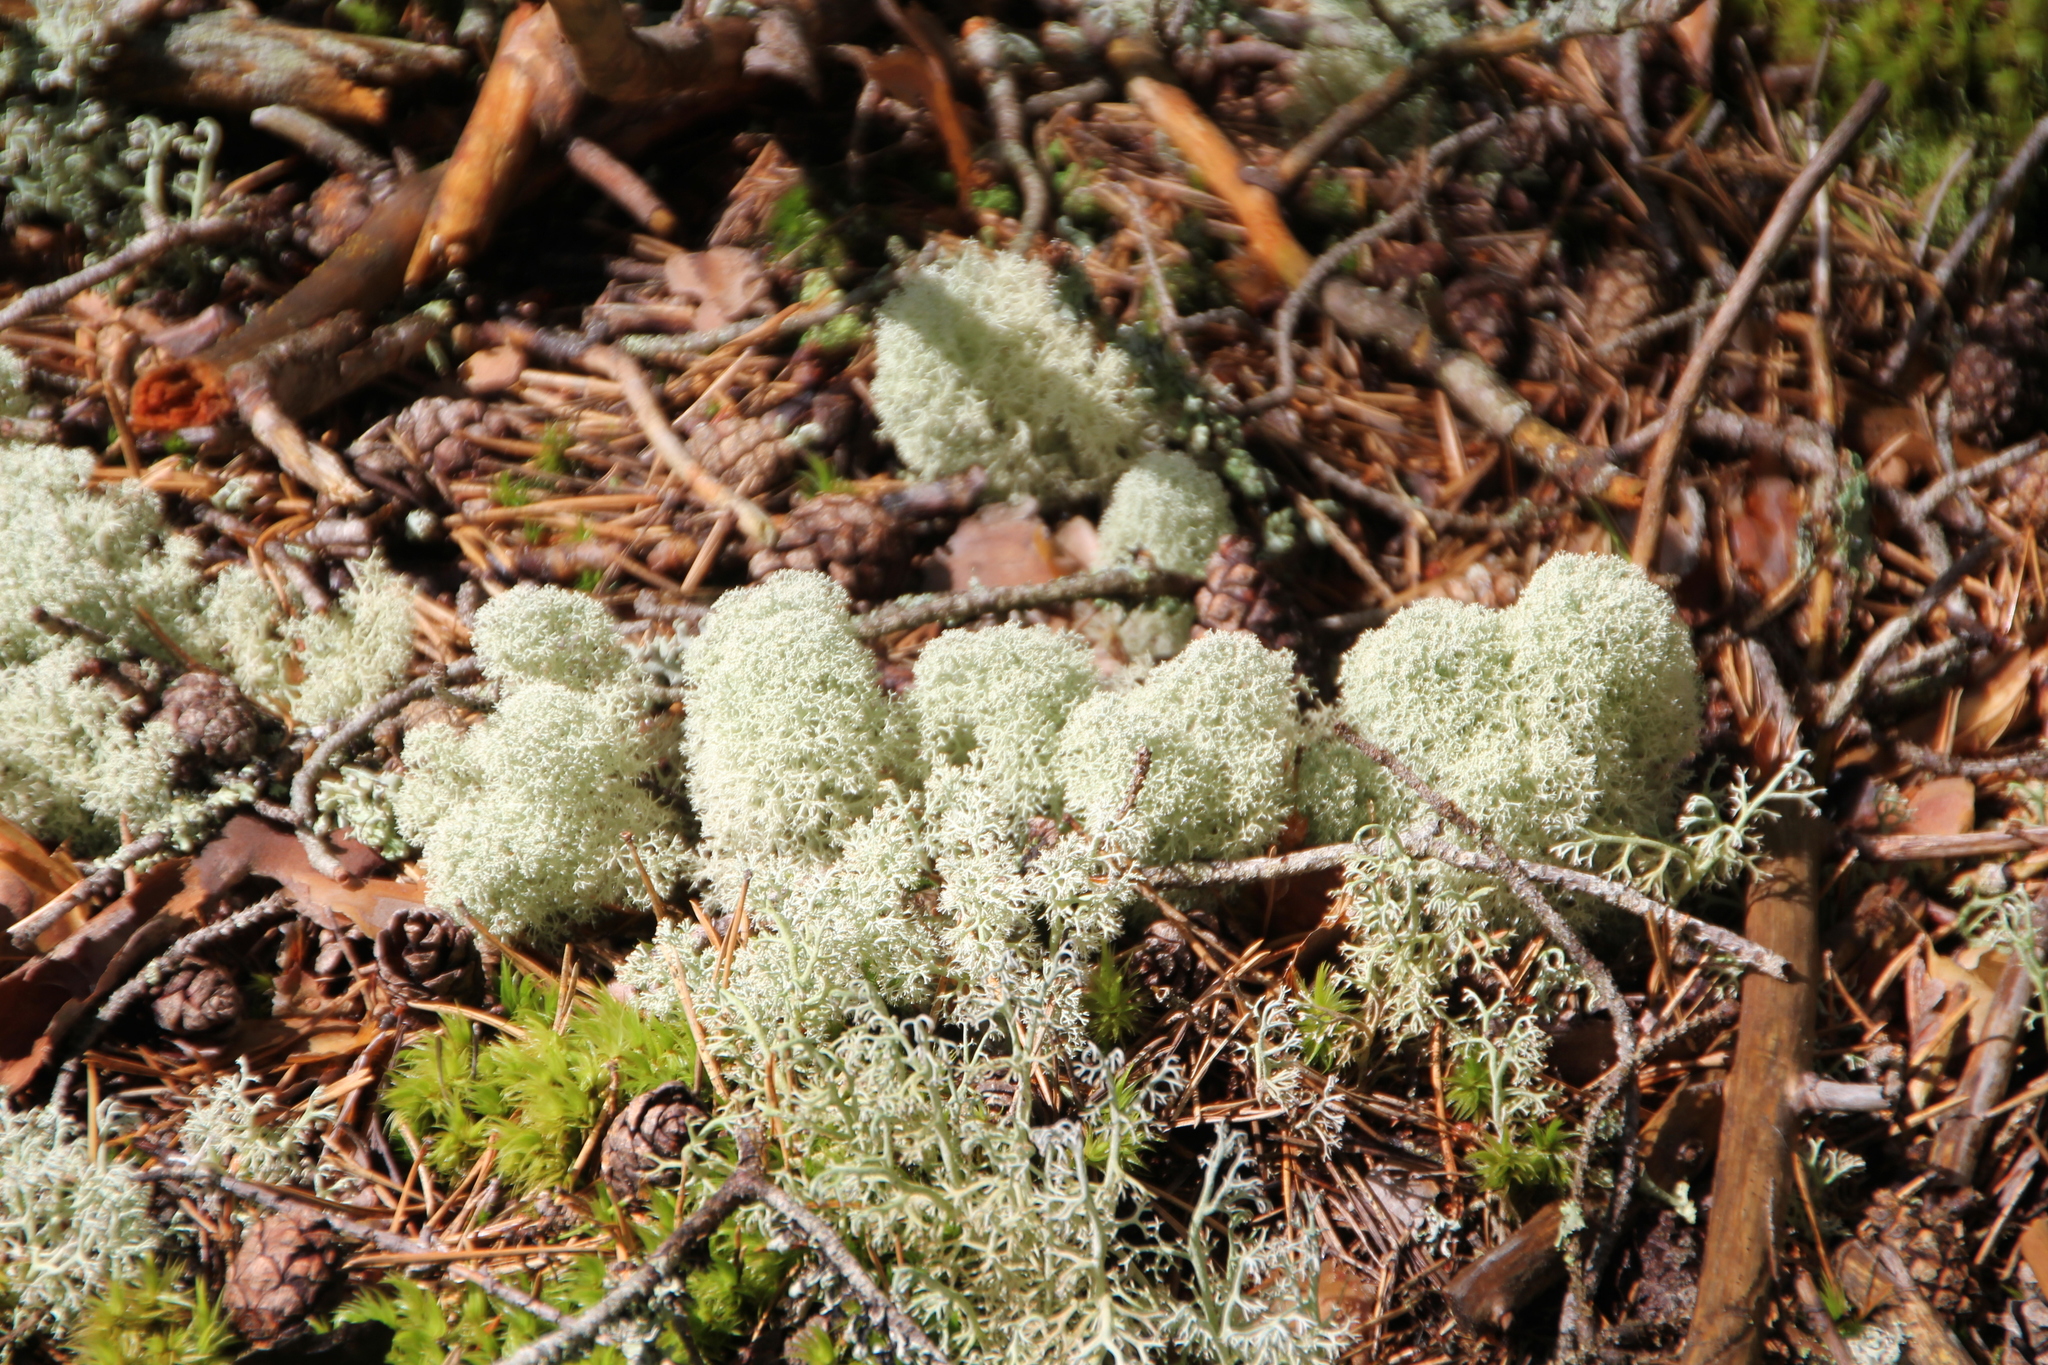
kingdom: Fungi
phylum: Ascomycota
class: Lecanoromycetes
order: Lecanorales
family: Cladoniaceae
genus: Cladonia
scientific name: Cladonia stellaris
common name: Star-tipped reindeer lichen
